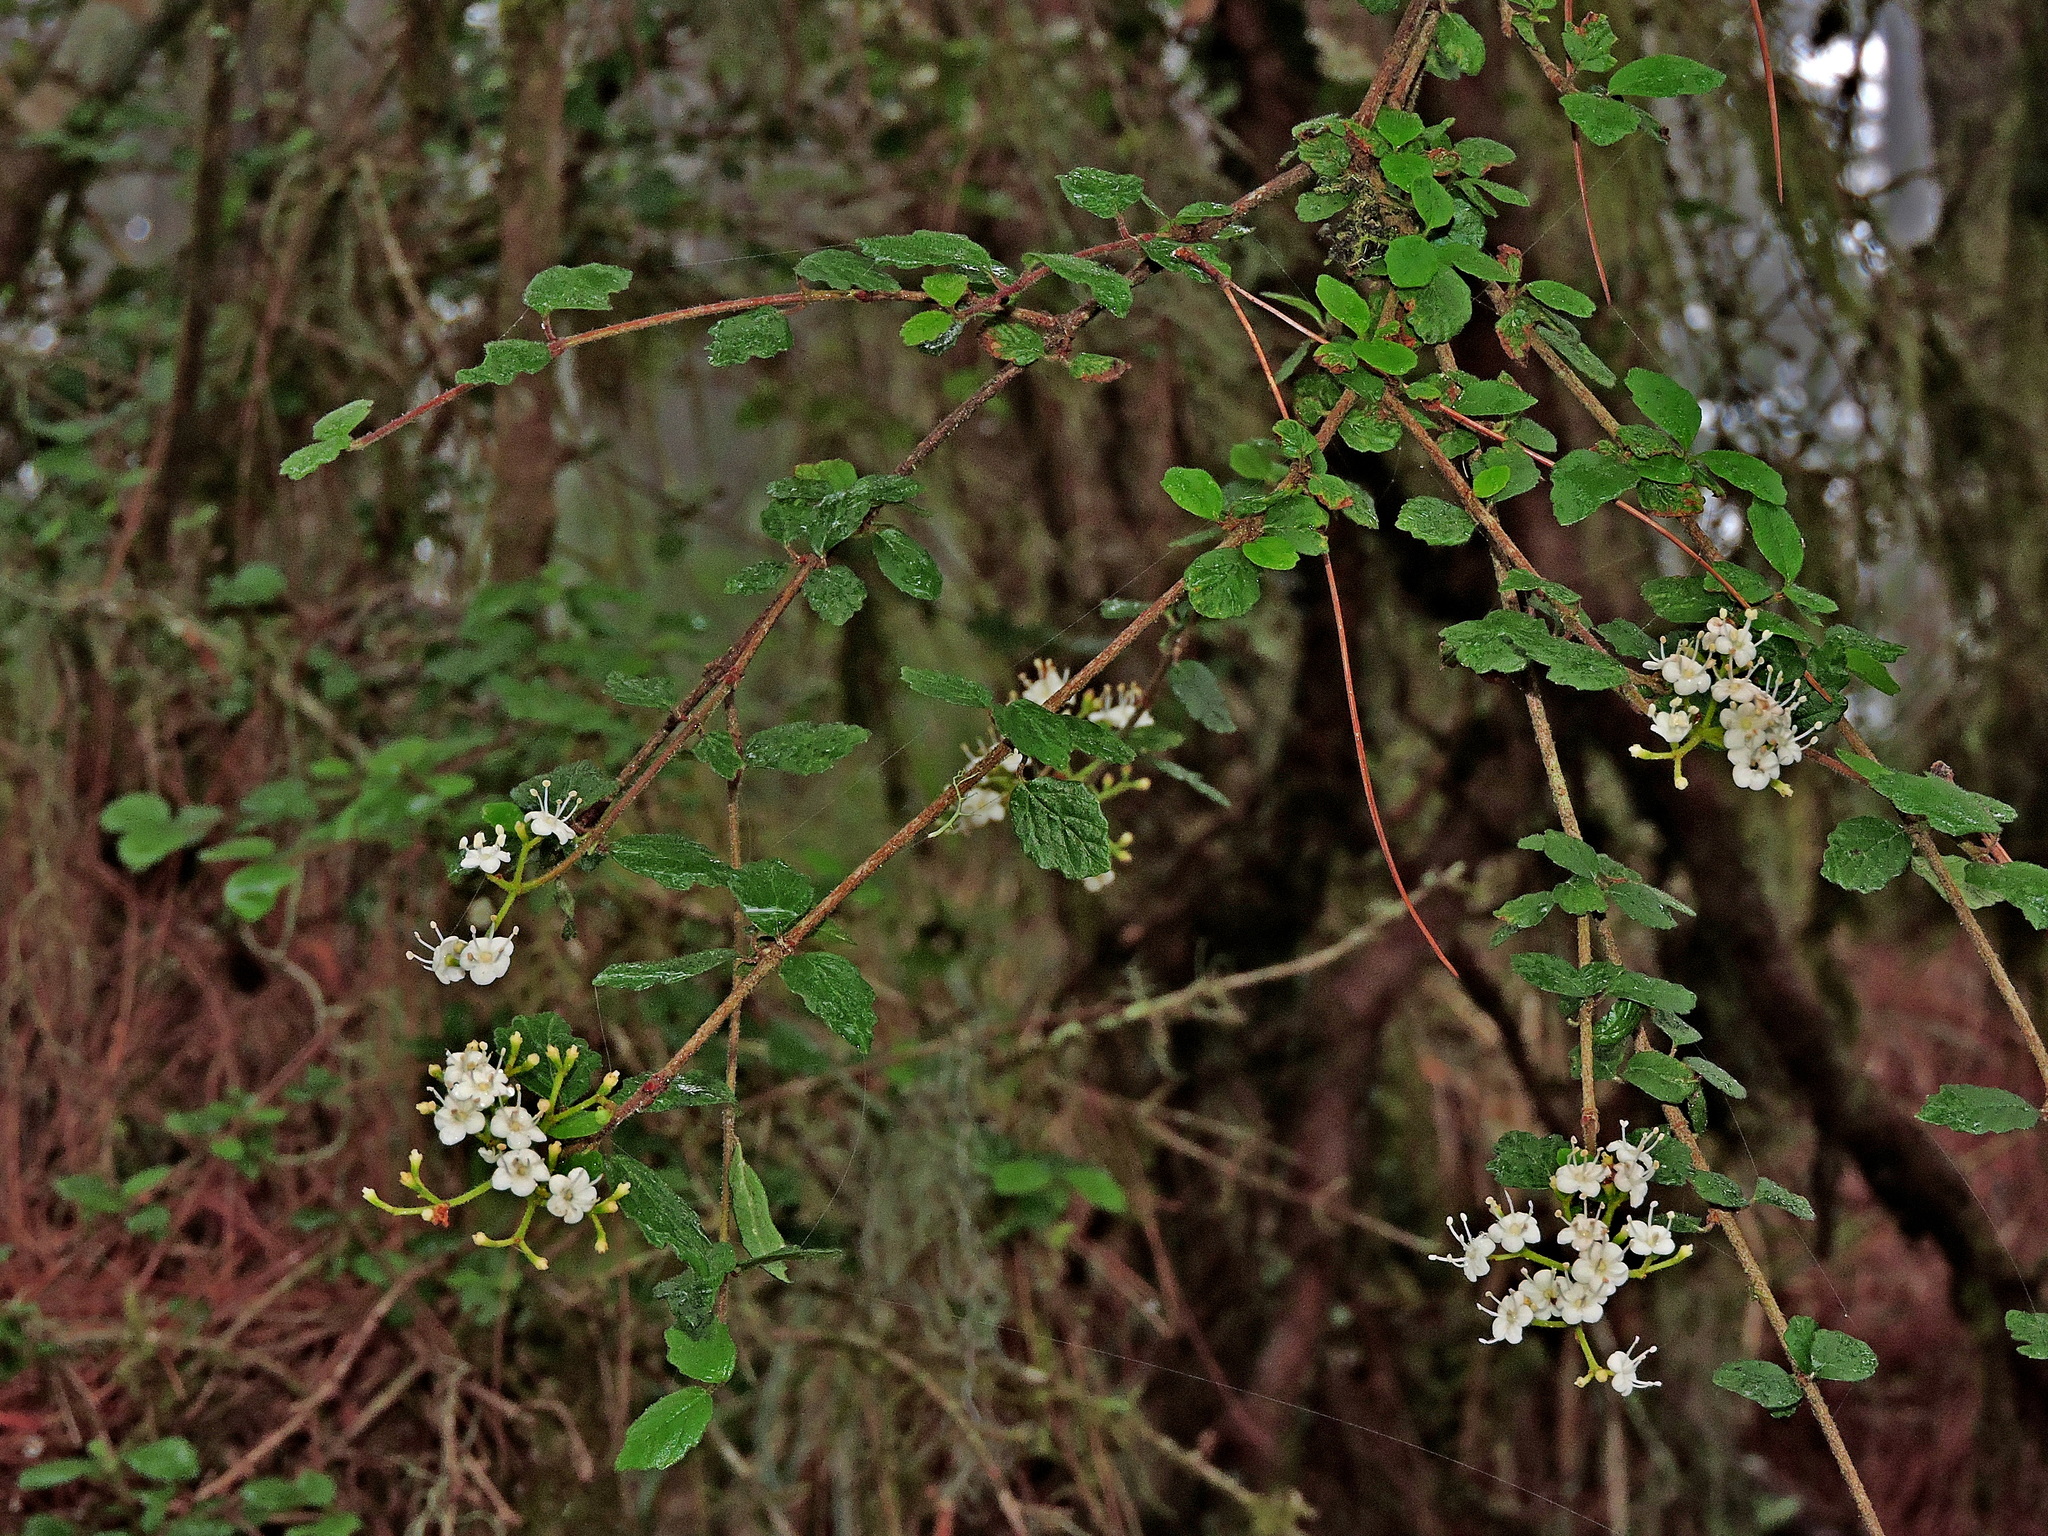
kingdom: Plantae
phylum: Tracheophyta
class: Magnoliopsida
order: Dipsacales
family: Viburnaceae
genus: Viburnum
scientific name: Viburnum parvifolium
